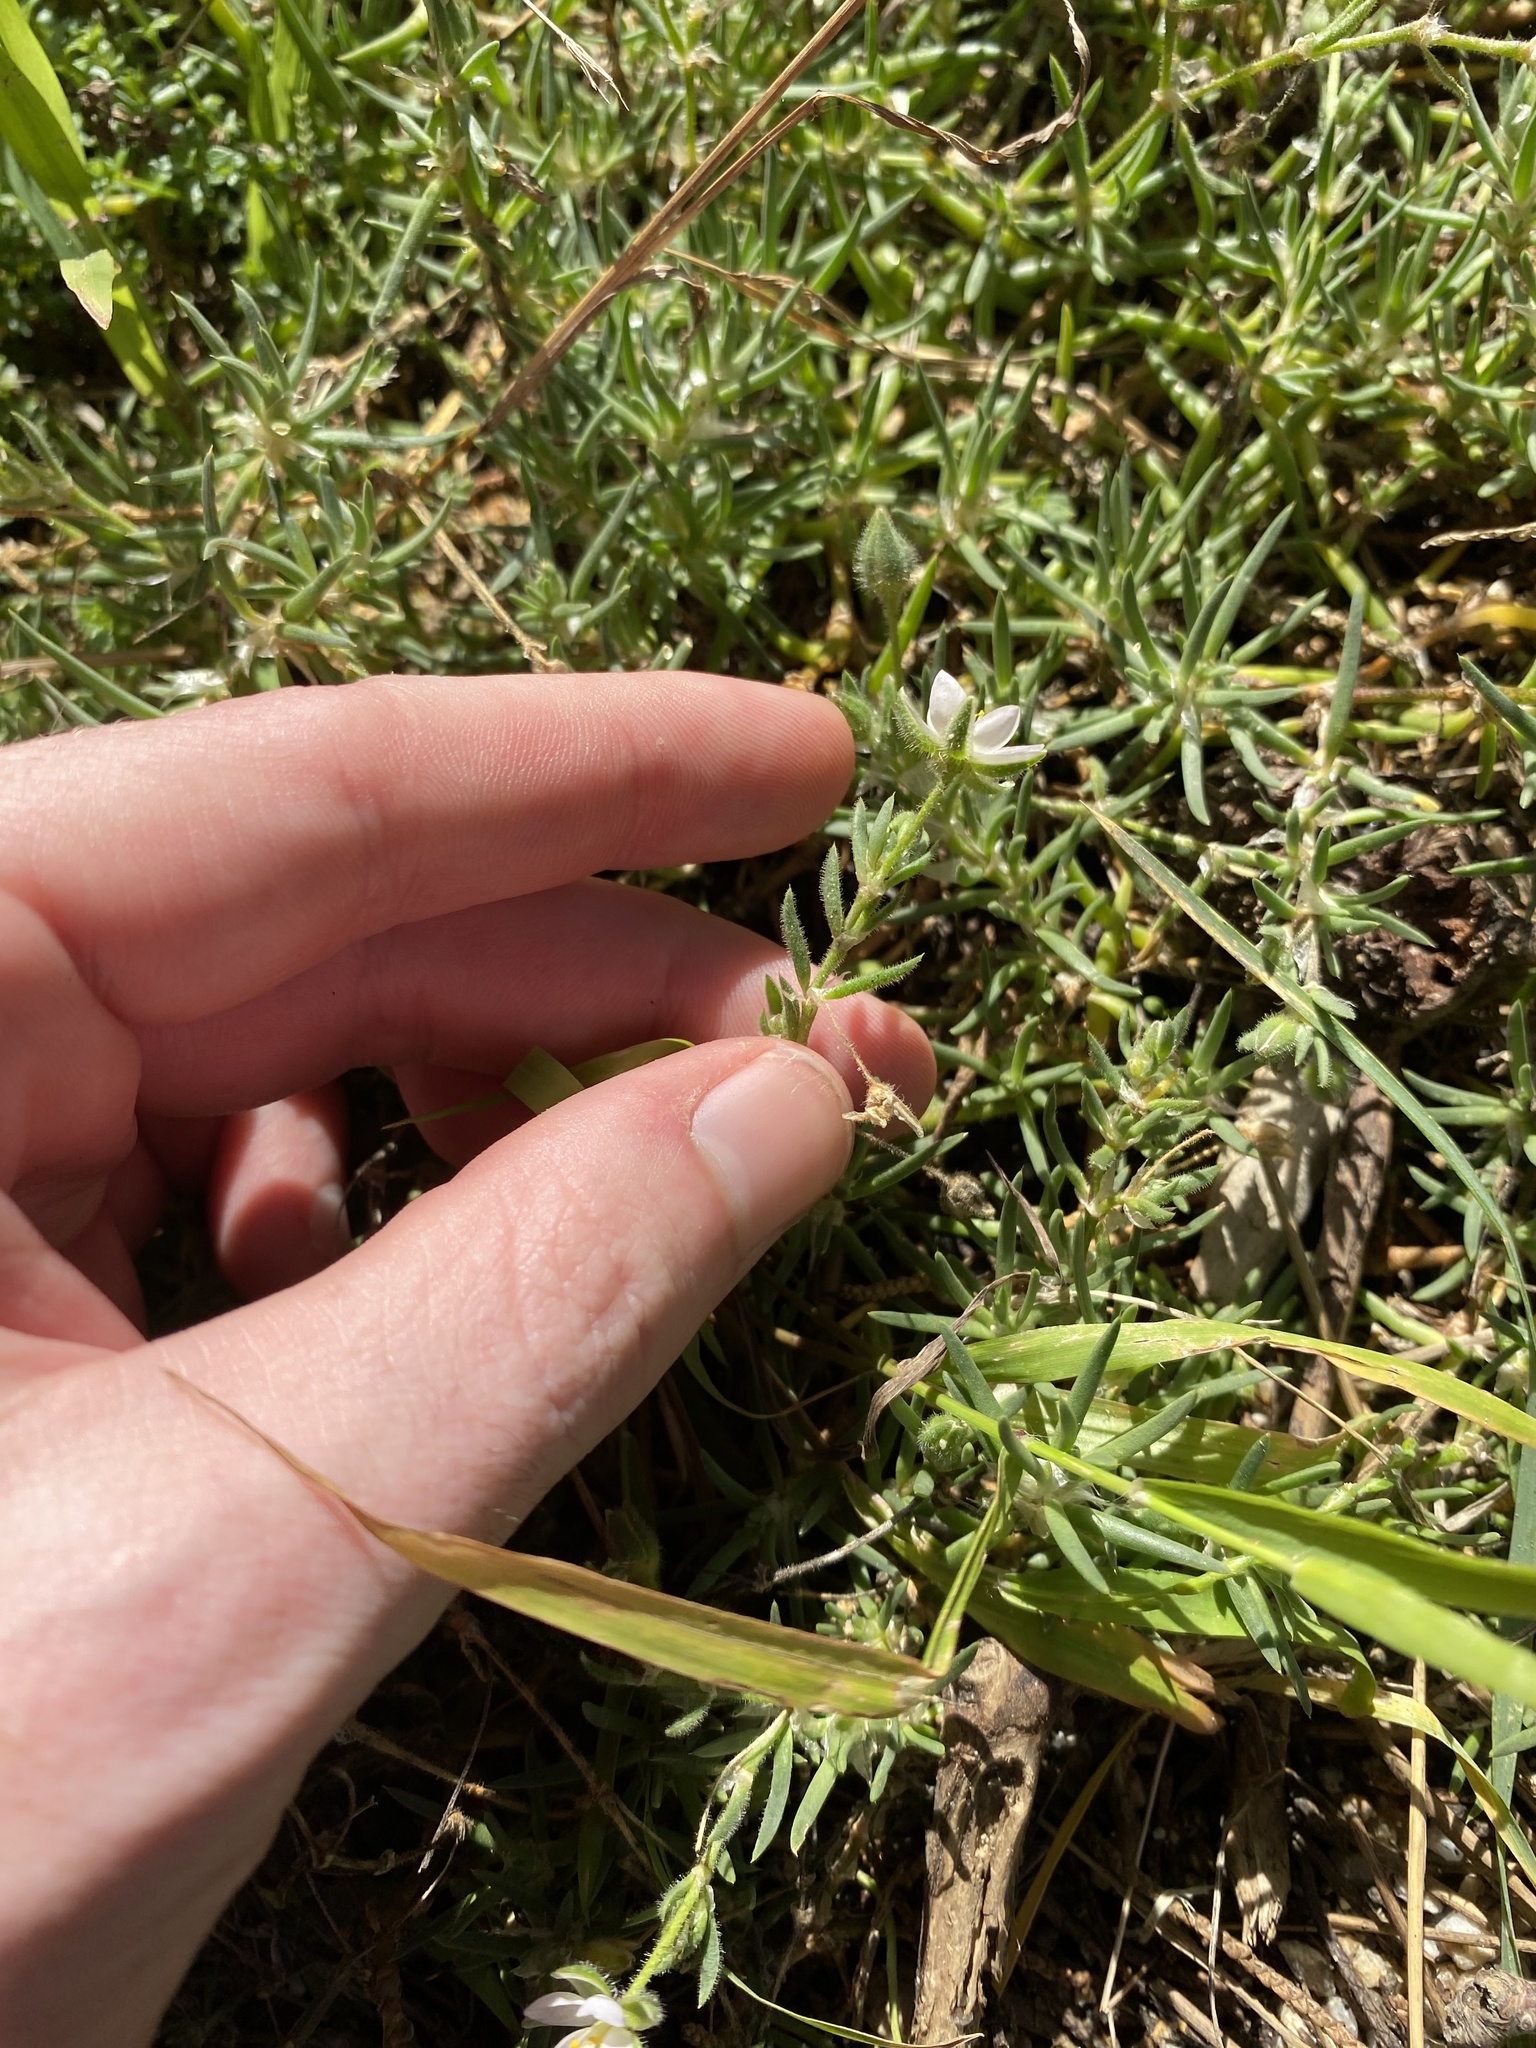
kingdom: Plantae
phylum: Tracheophyta
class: Magnoliopsida
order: Caryophyllales
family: Caryophyllaceae
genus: Spergularia
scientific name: Spergularia macrotheca
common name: Beach sand-spurrey
